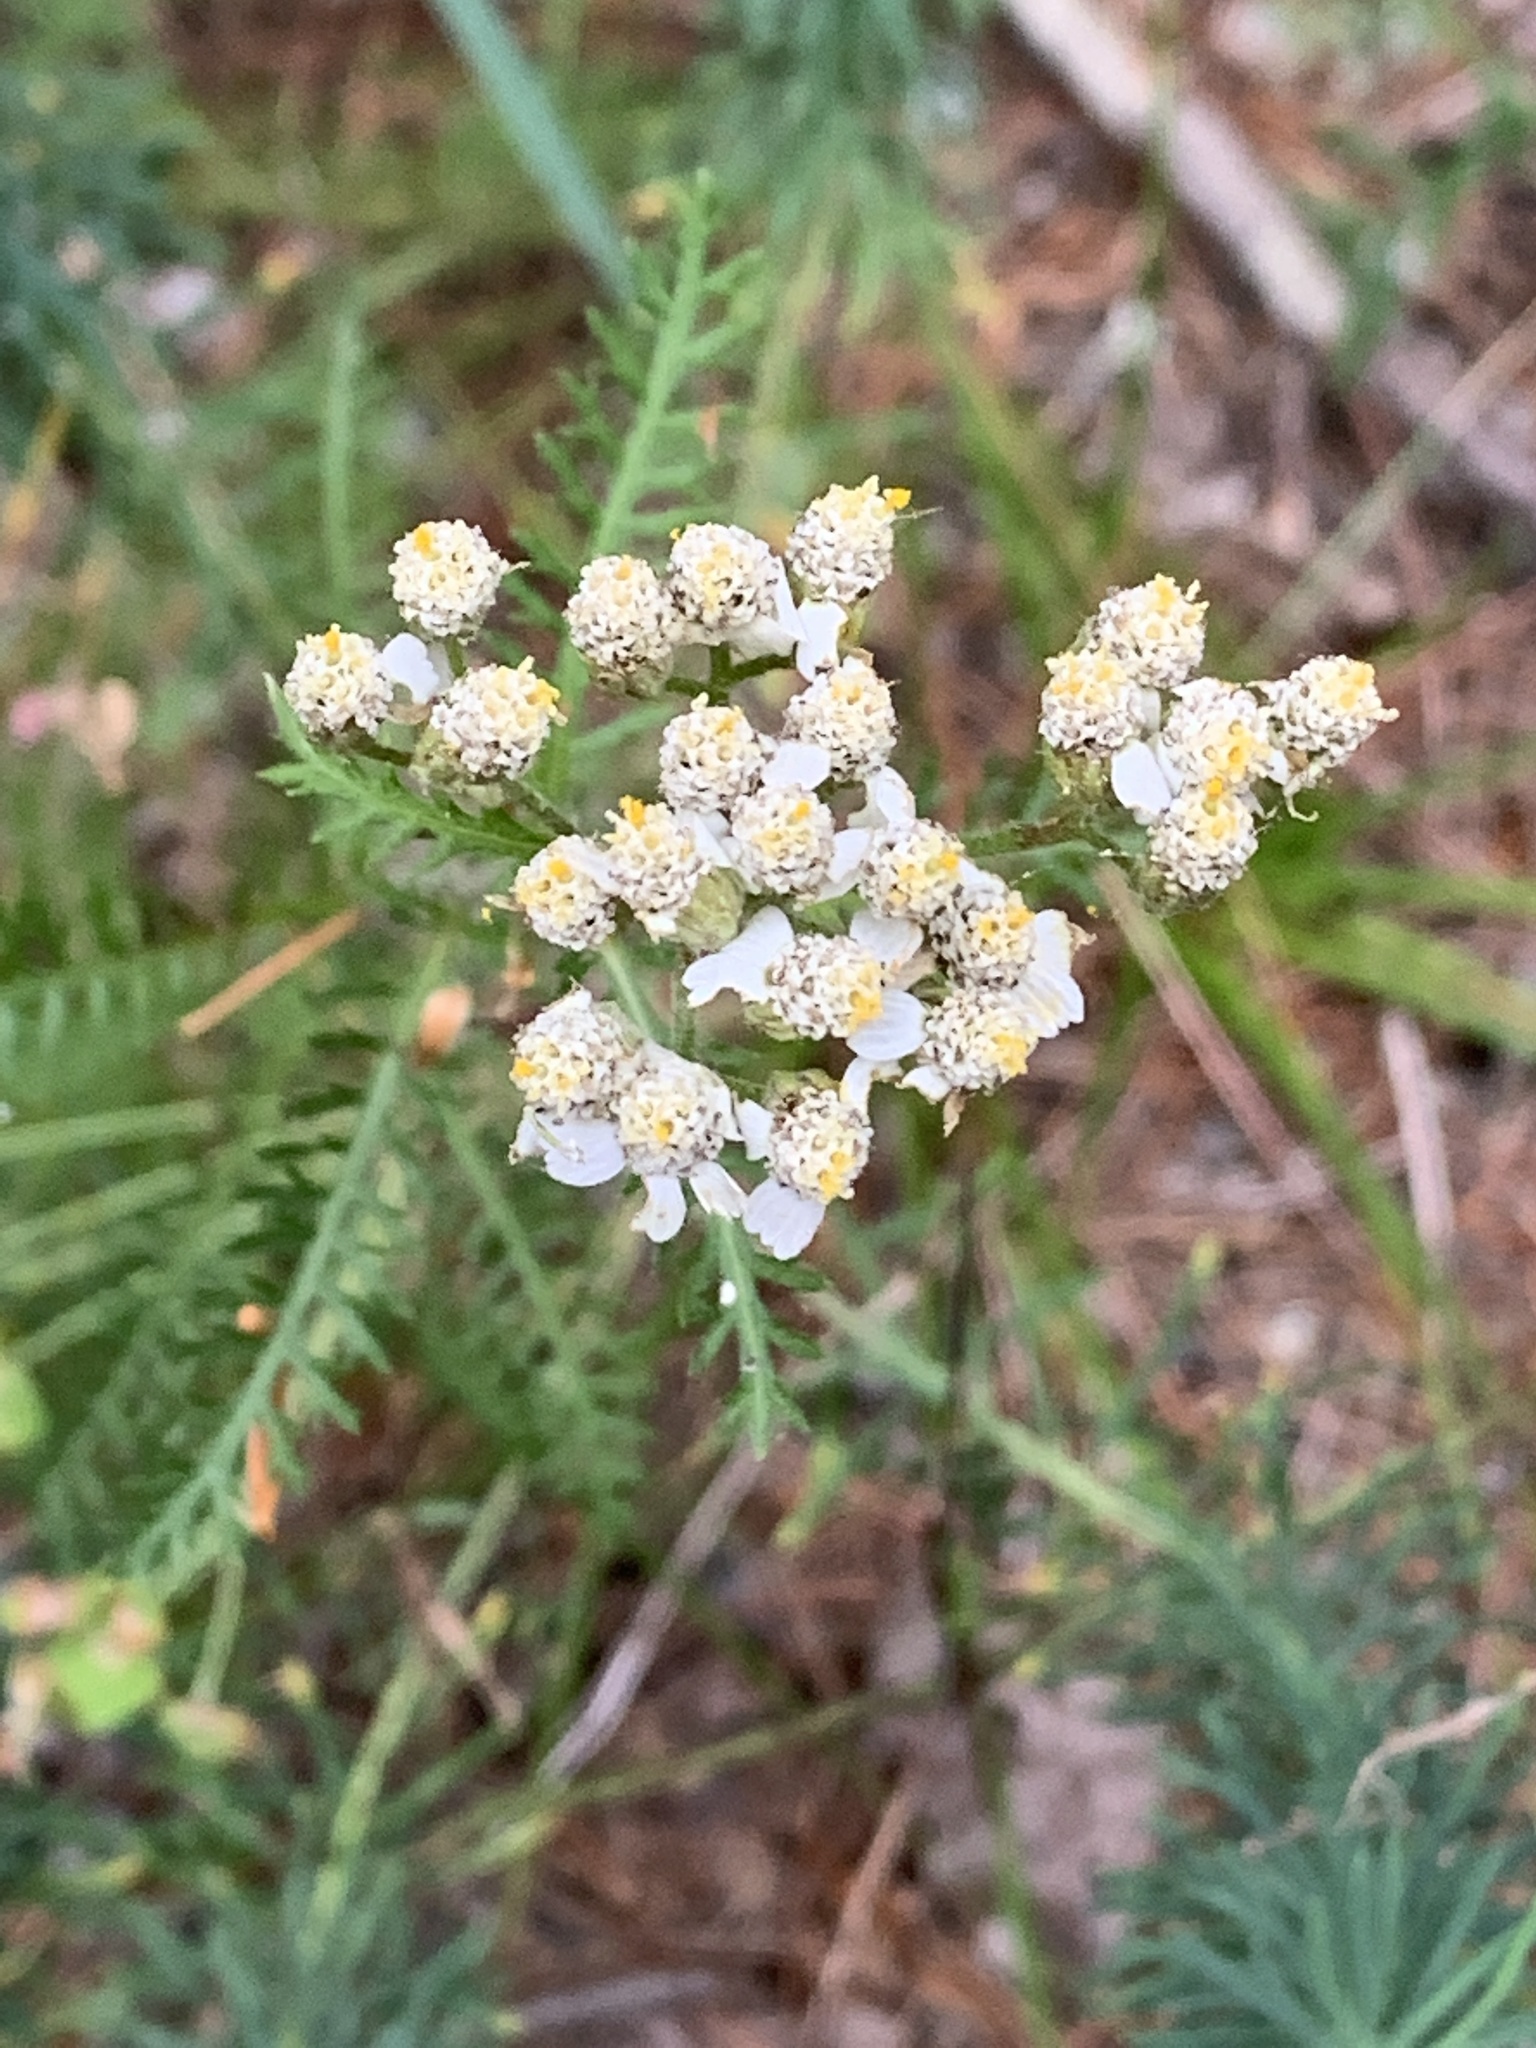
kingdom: Plantae
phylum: Tracheophyta
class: Magnoliopsida
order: Asterales
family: Asteraceae
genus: Achillea
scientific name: Achillea millefolium
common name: Yarrow
